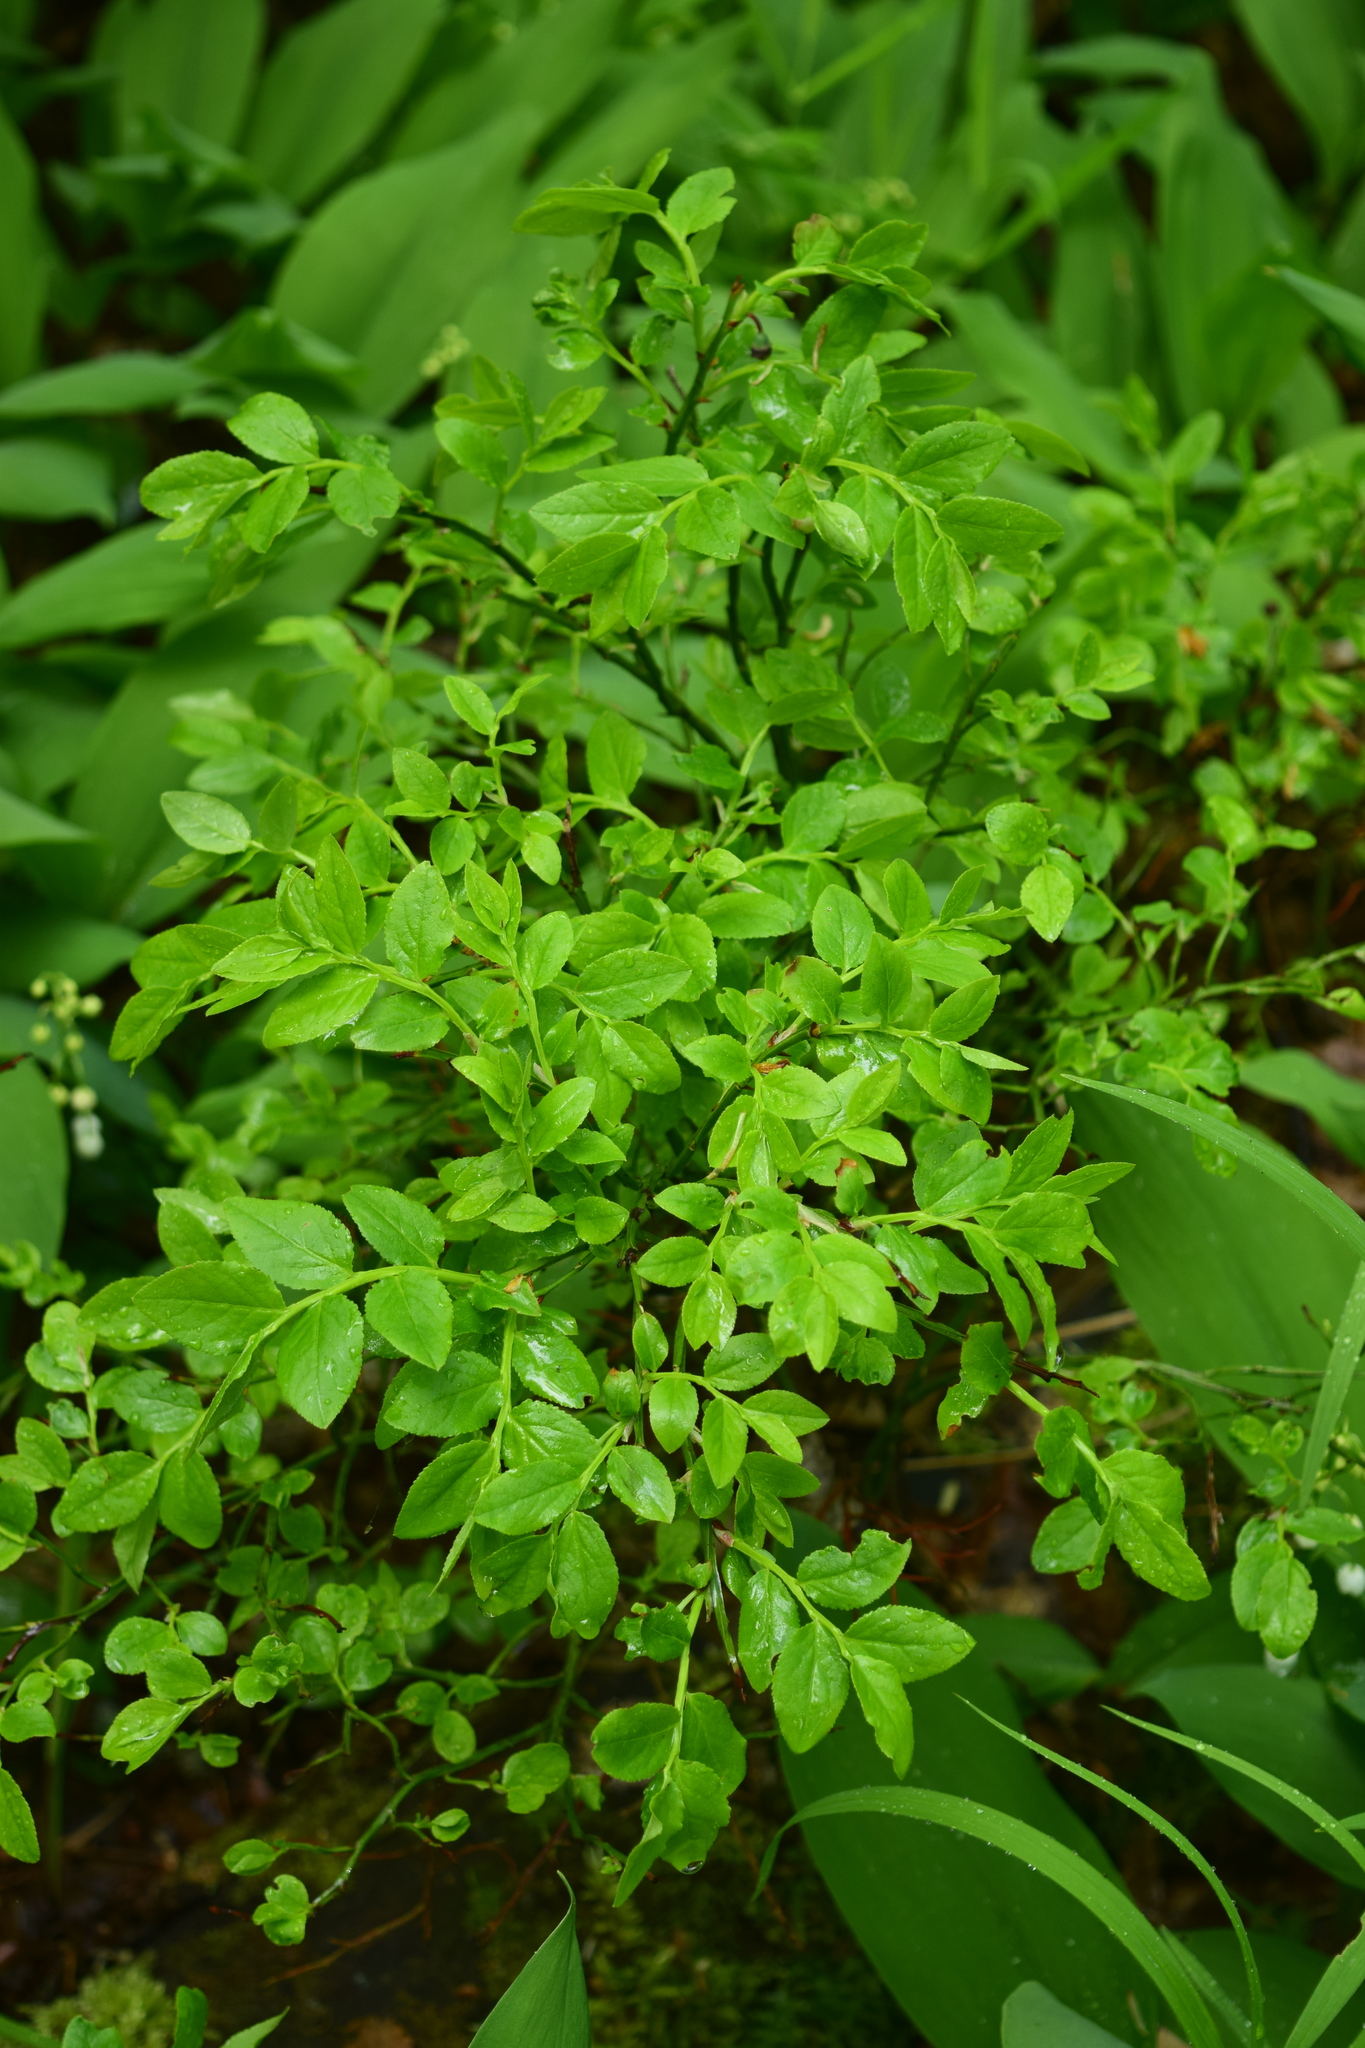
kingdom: Plantae
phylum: Tracheophyta
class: Magnoliopsida
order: Ericales
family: Ericaceae
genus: Vaccinium
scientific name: Vaccinium myrtillus
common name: Bilberry
